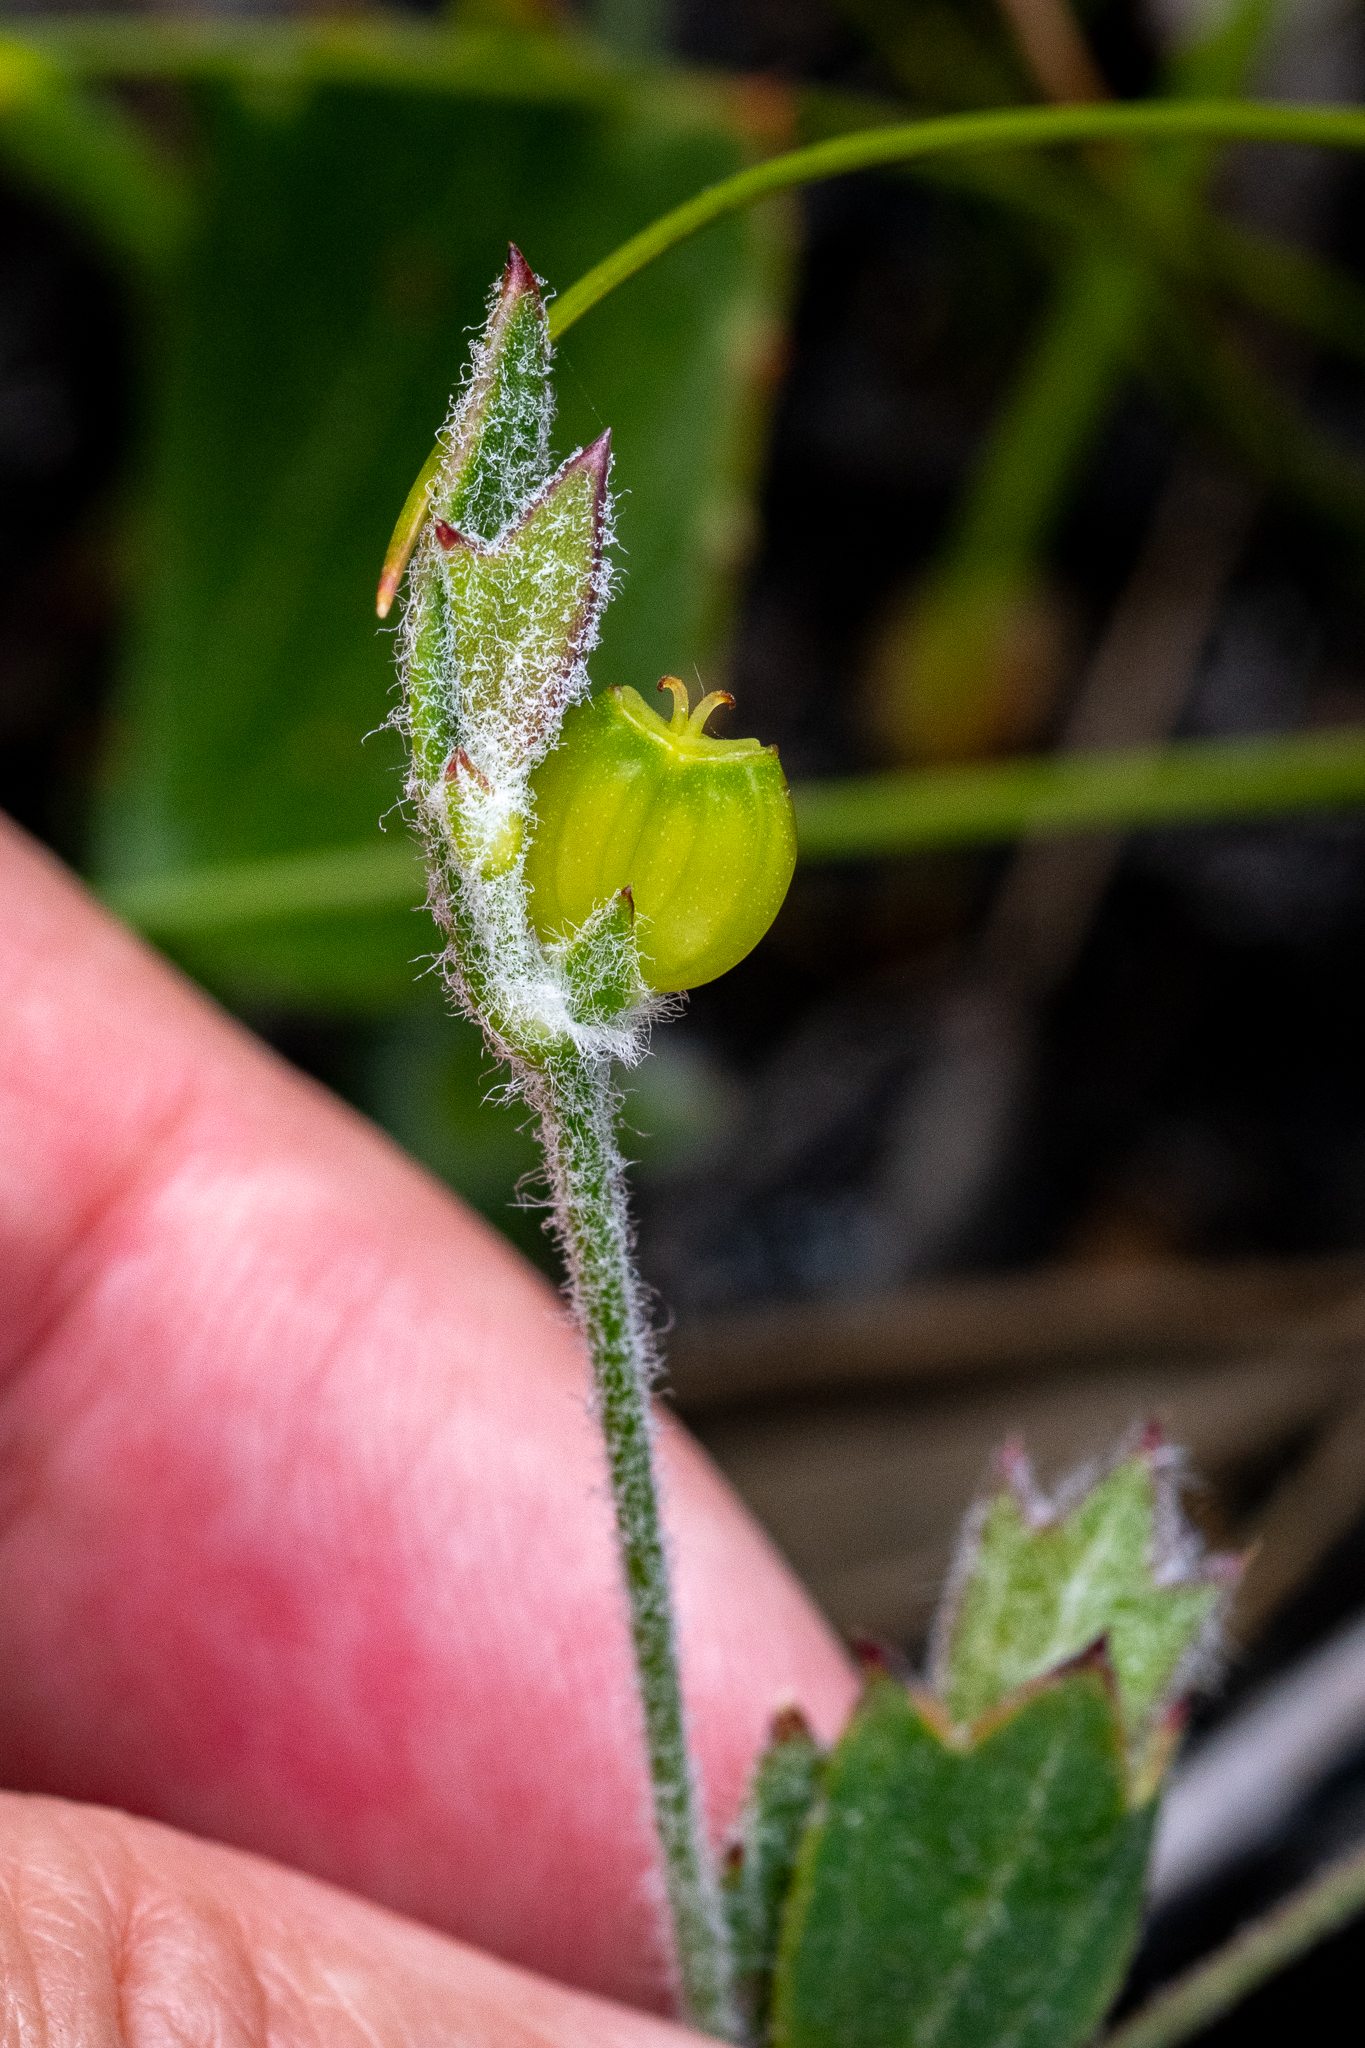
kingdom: Plantae
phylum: Tracheophyta
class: Magnoliopsida
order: Apiales
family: Apiaceae
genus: Centella
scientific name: Centella difformis
